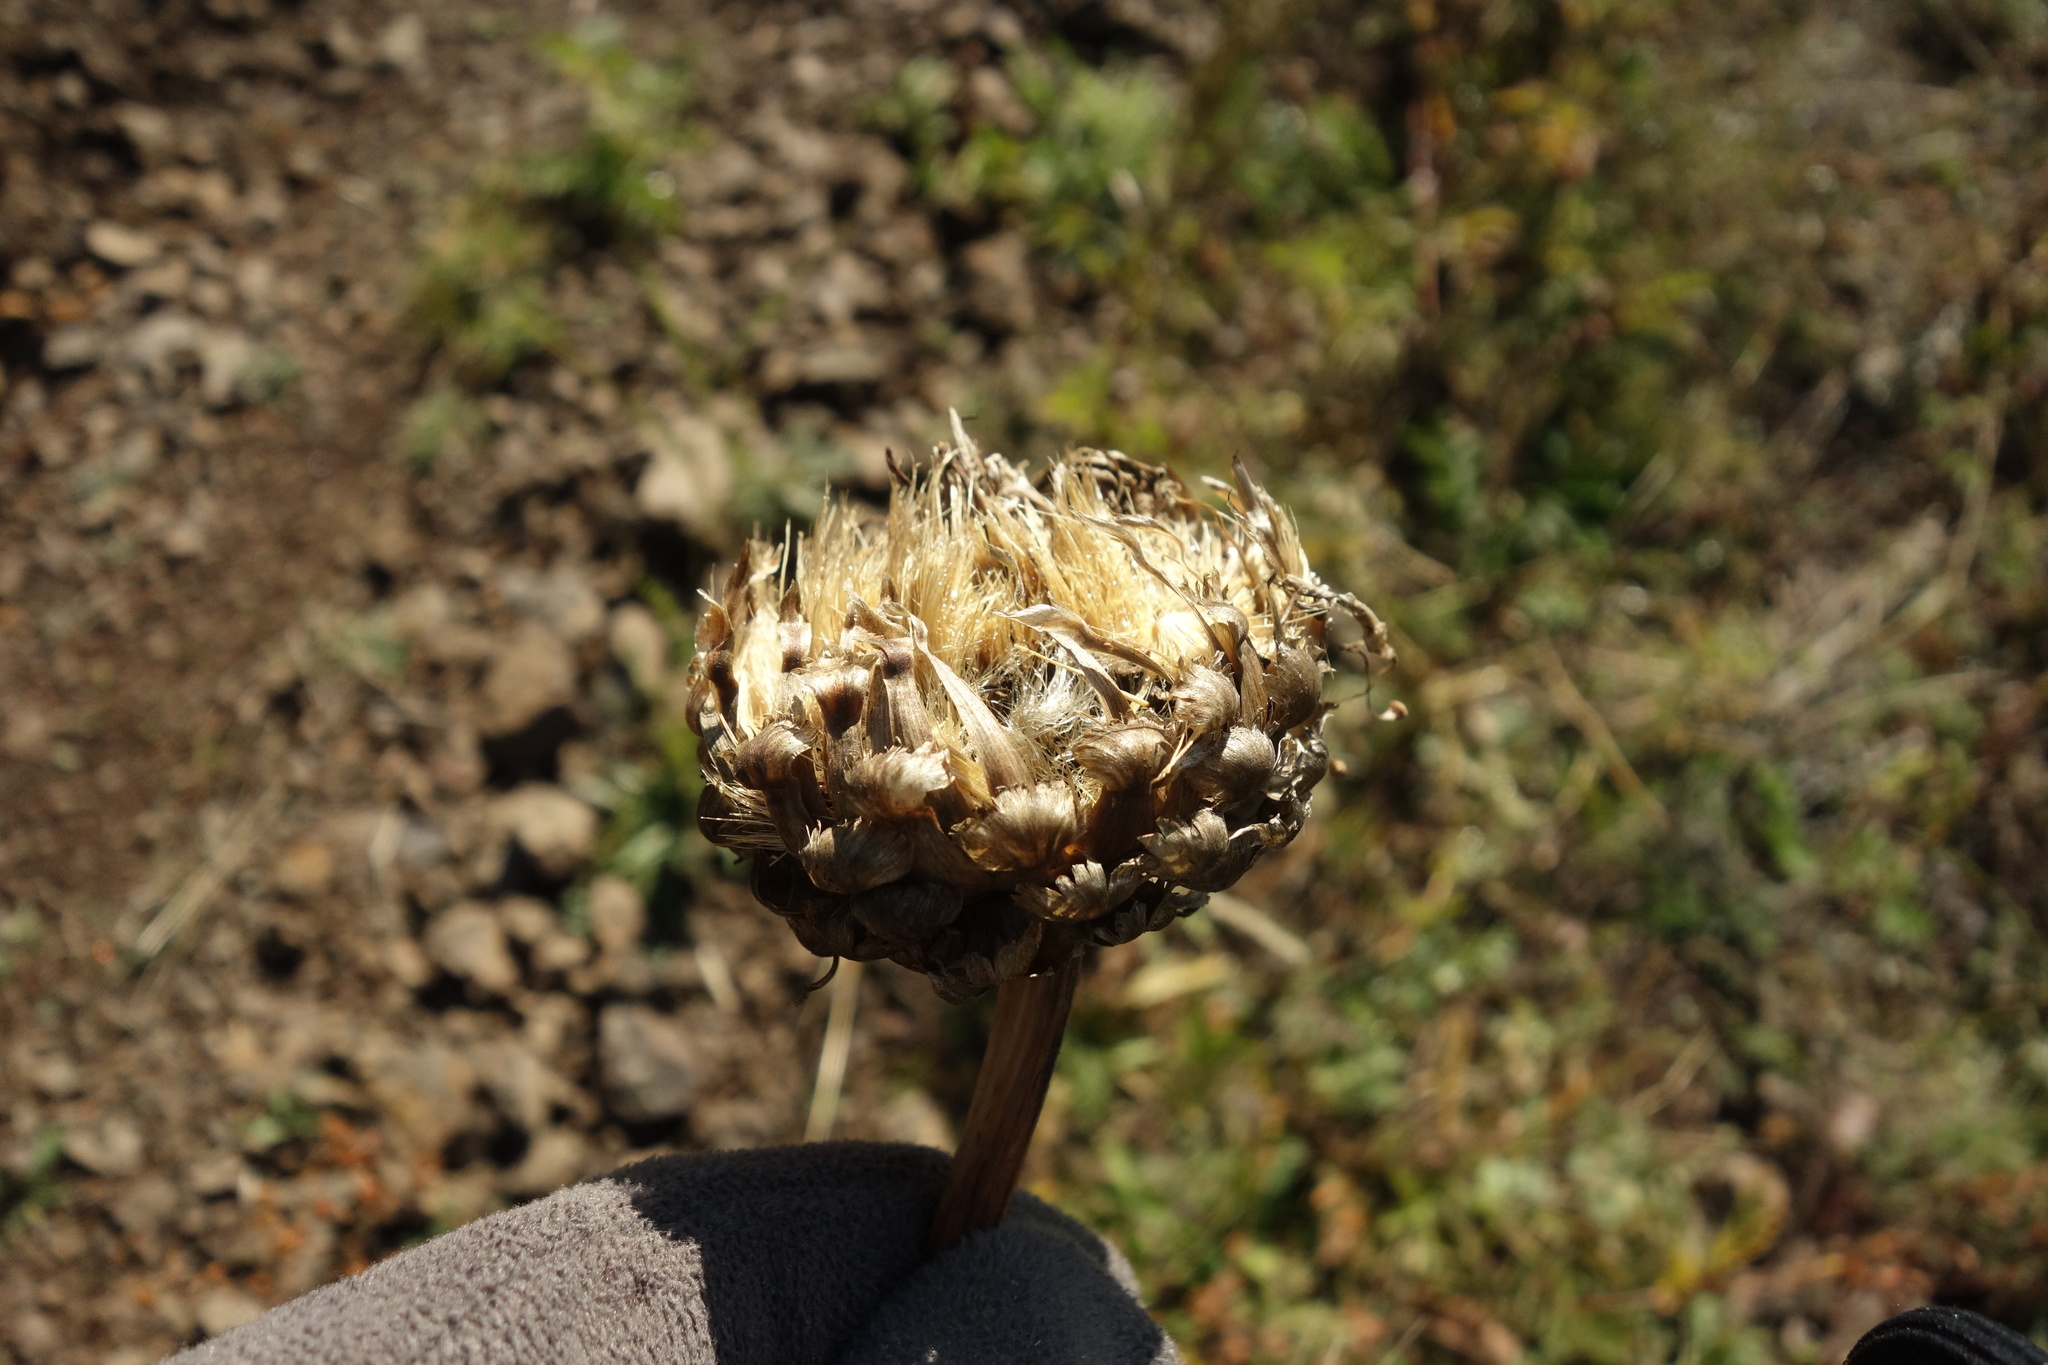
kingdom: Plantae
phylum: Tracheophyta
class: Magnoliopsida
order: Asterales
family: Asteraceae
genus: Leuzea
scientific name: Leuzea uniflora
